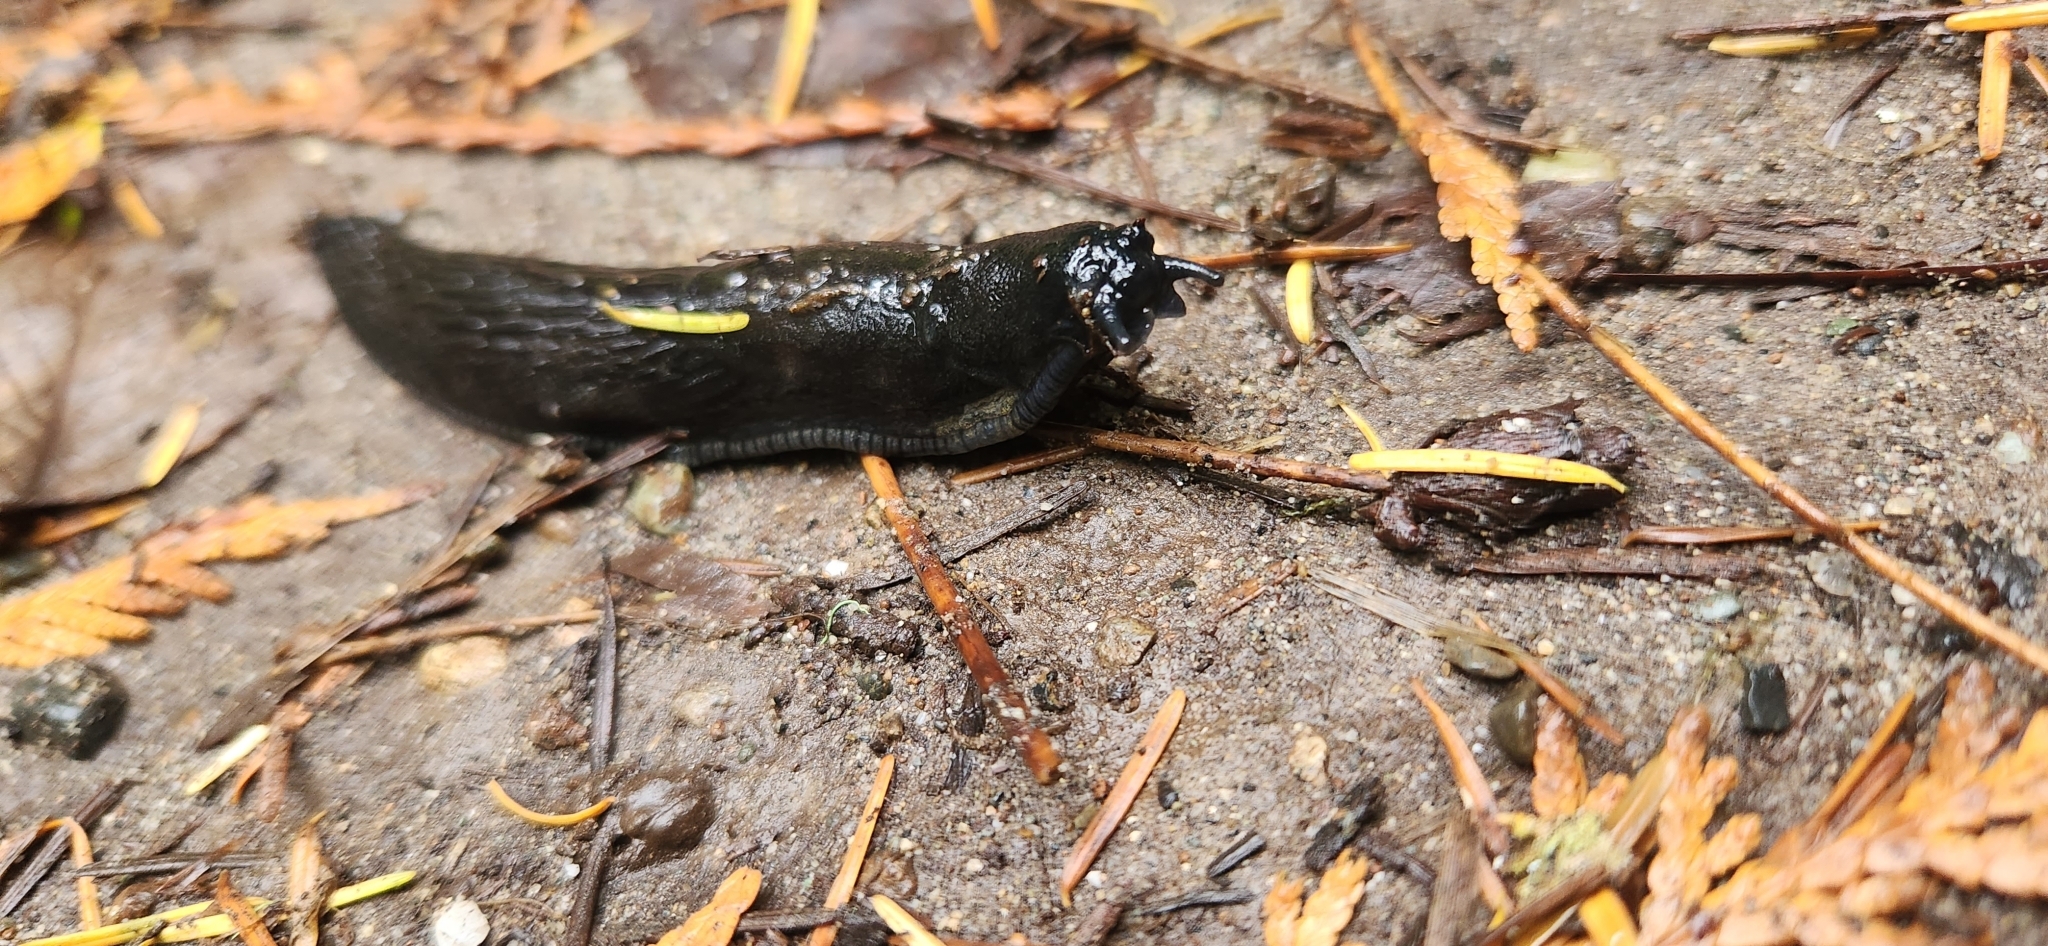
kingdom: Animalia
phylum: Mollusca
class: Gastropoda
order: Stylommatophora
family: Arionidae
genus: Arion
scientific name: Arion
